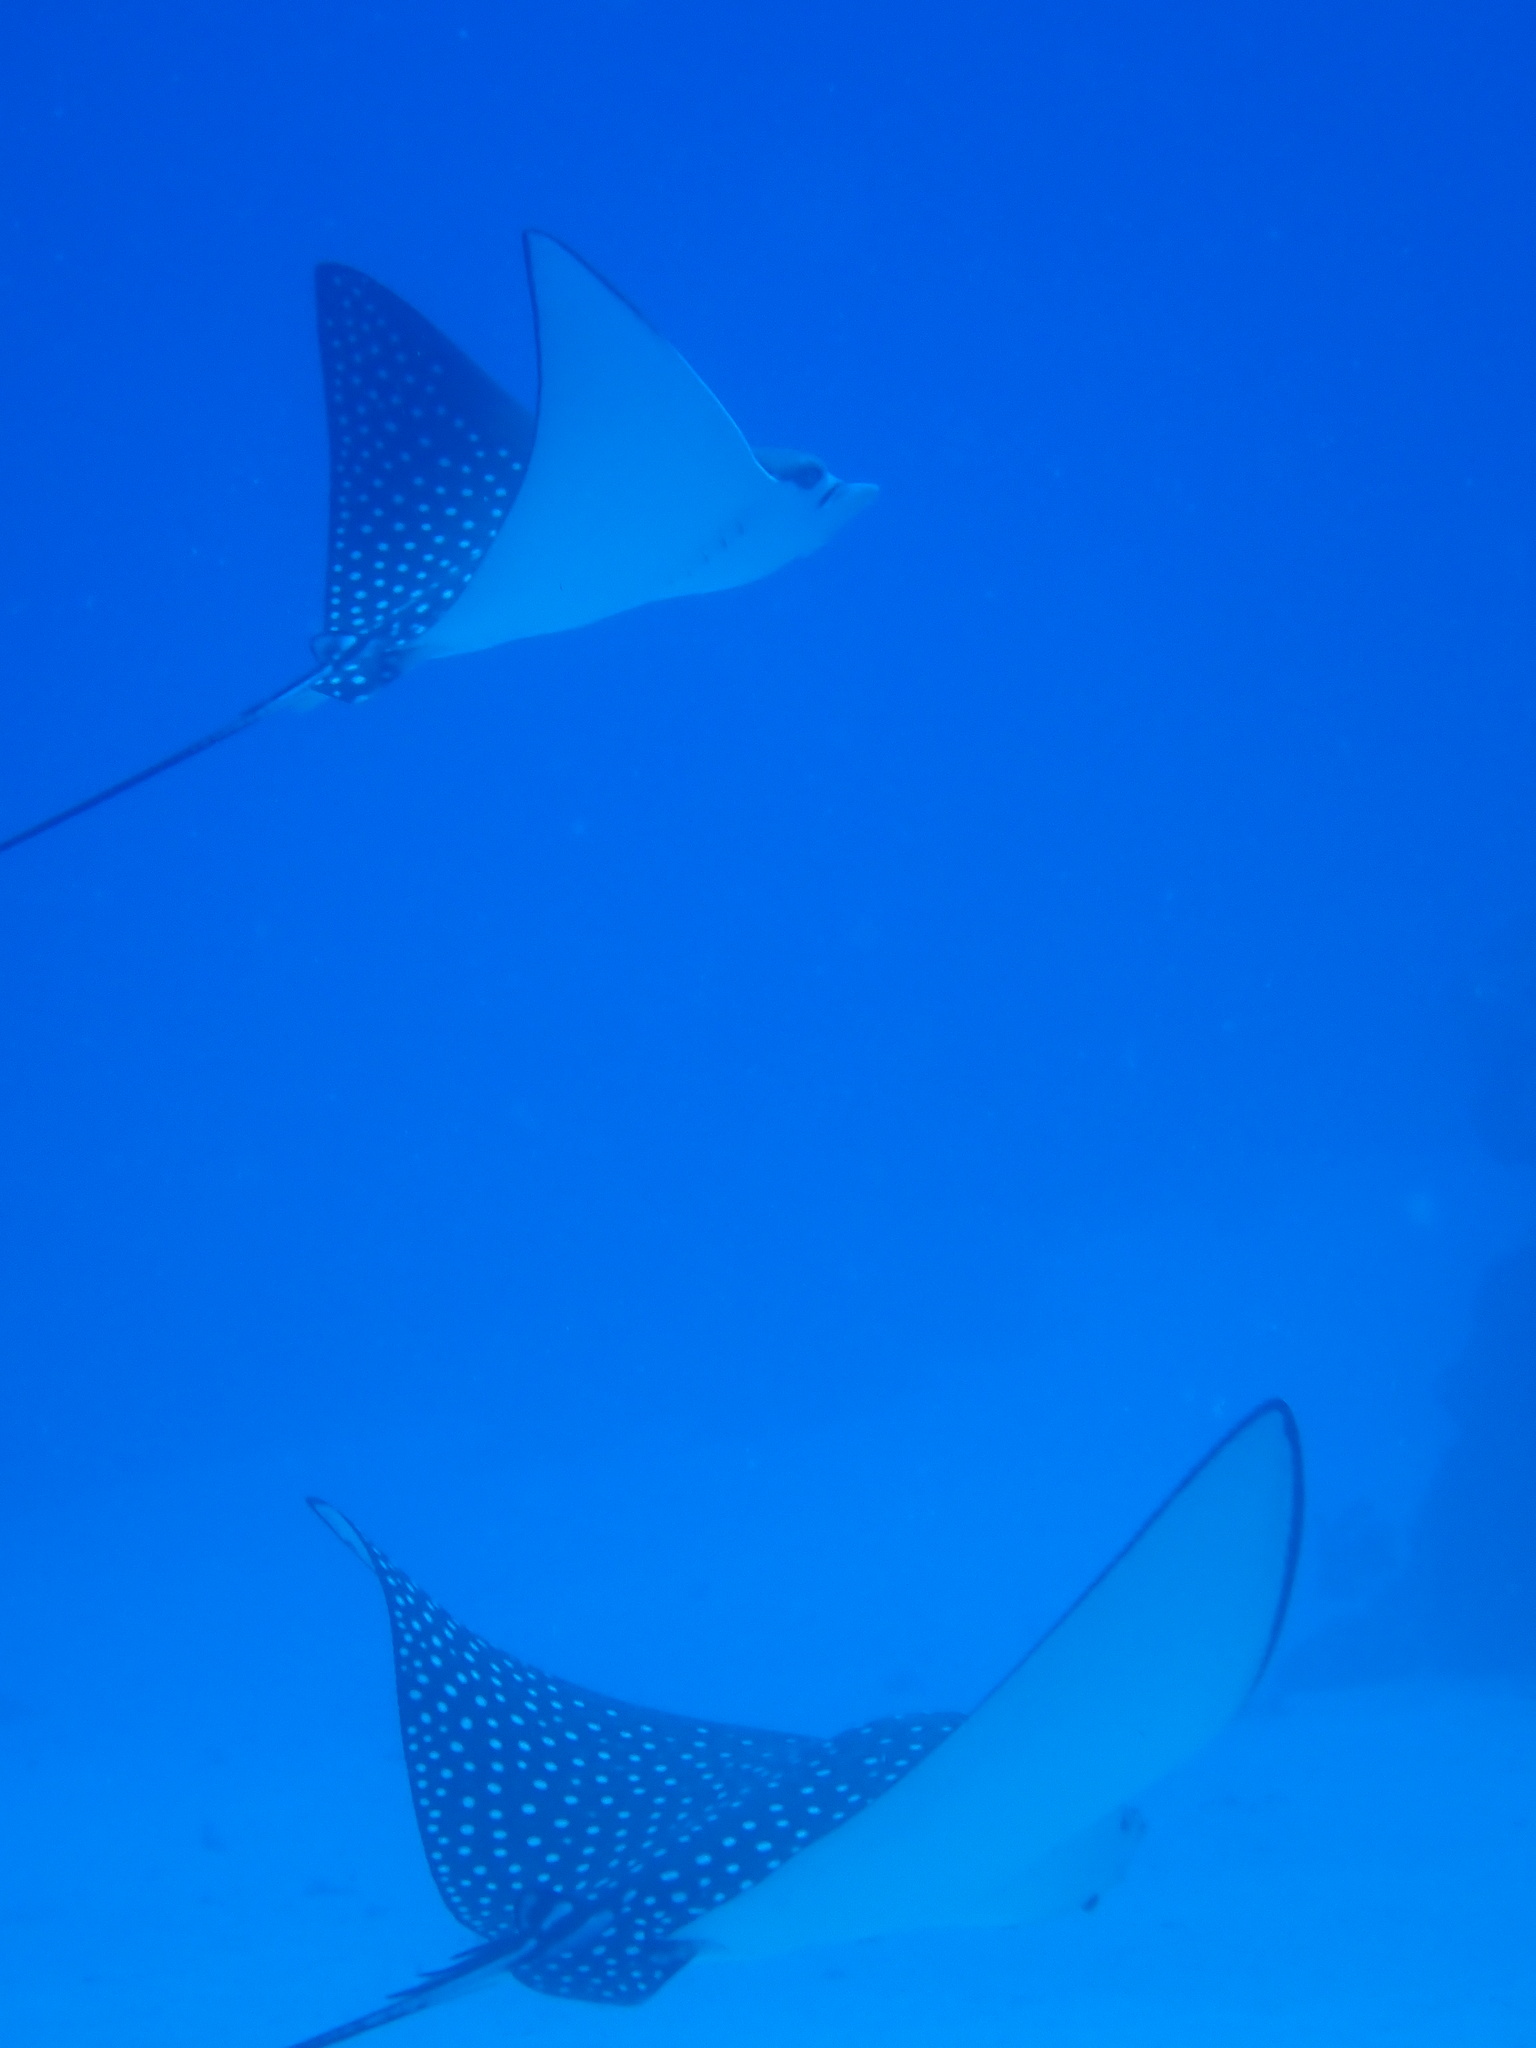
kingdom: Animalia
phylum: Chordata
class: Elasmobranchii
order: Myliobatiformes
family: Myliobatidae
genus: Aetobatus
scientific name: Aetobatus ocellatus
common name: Ocellated eagle ray
